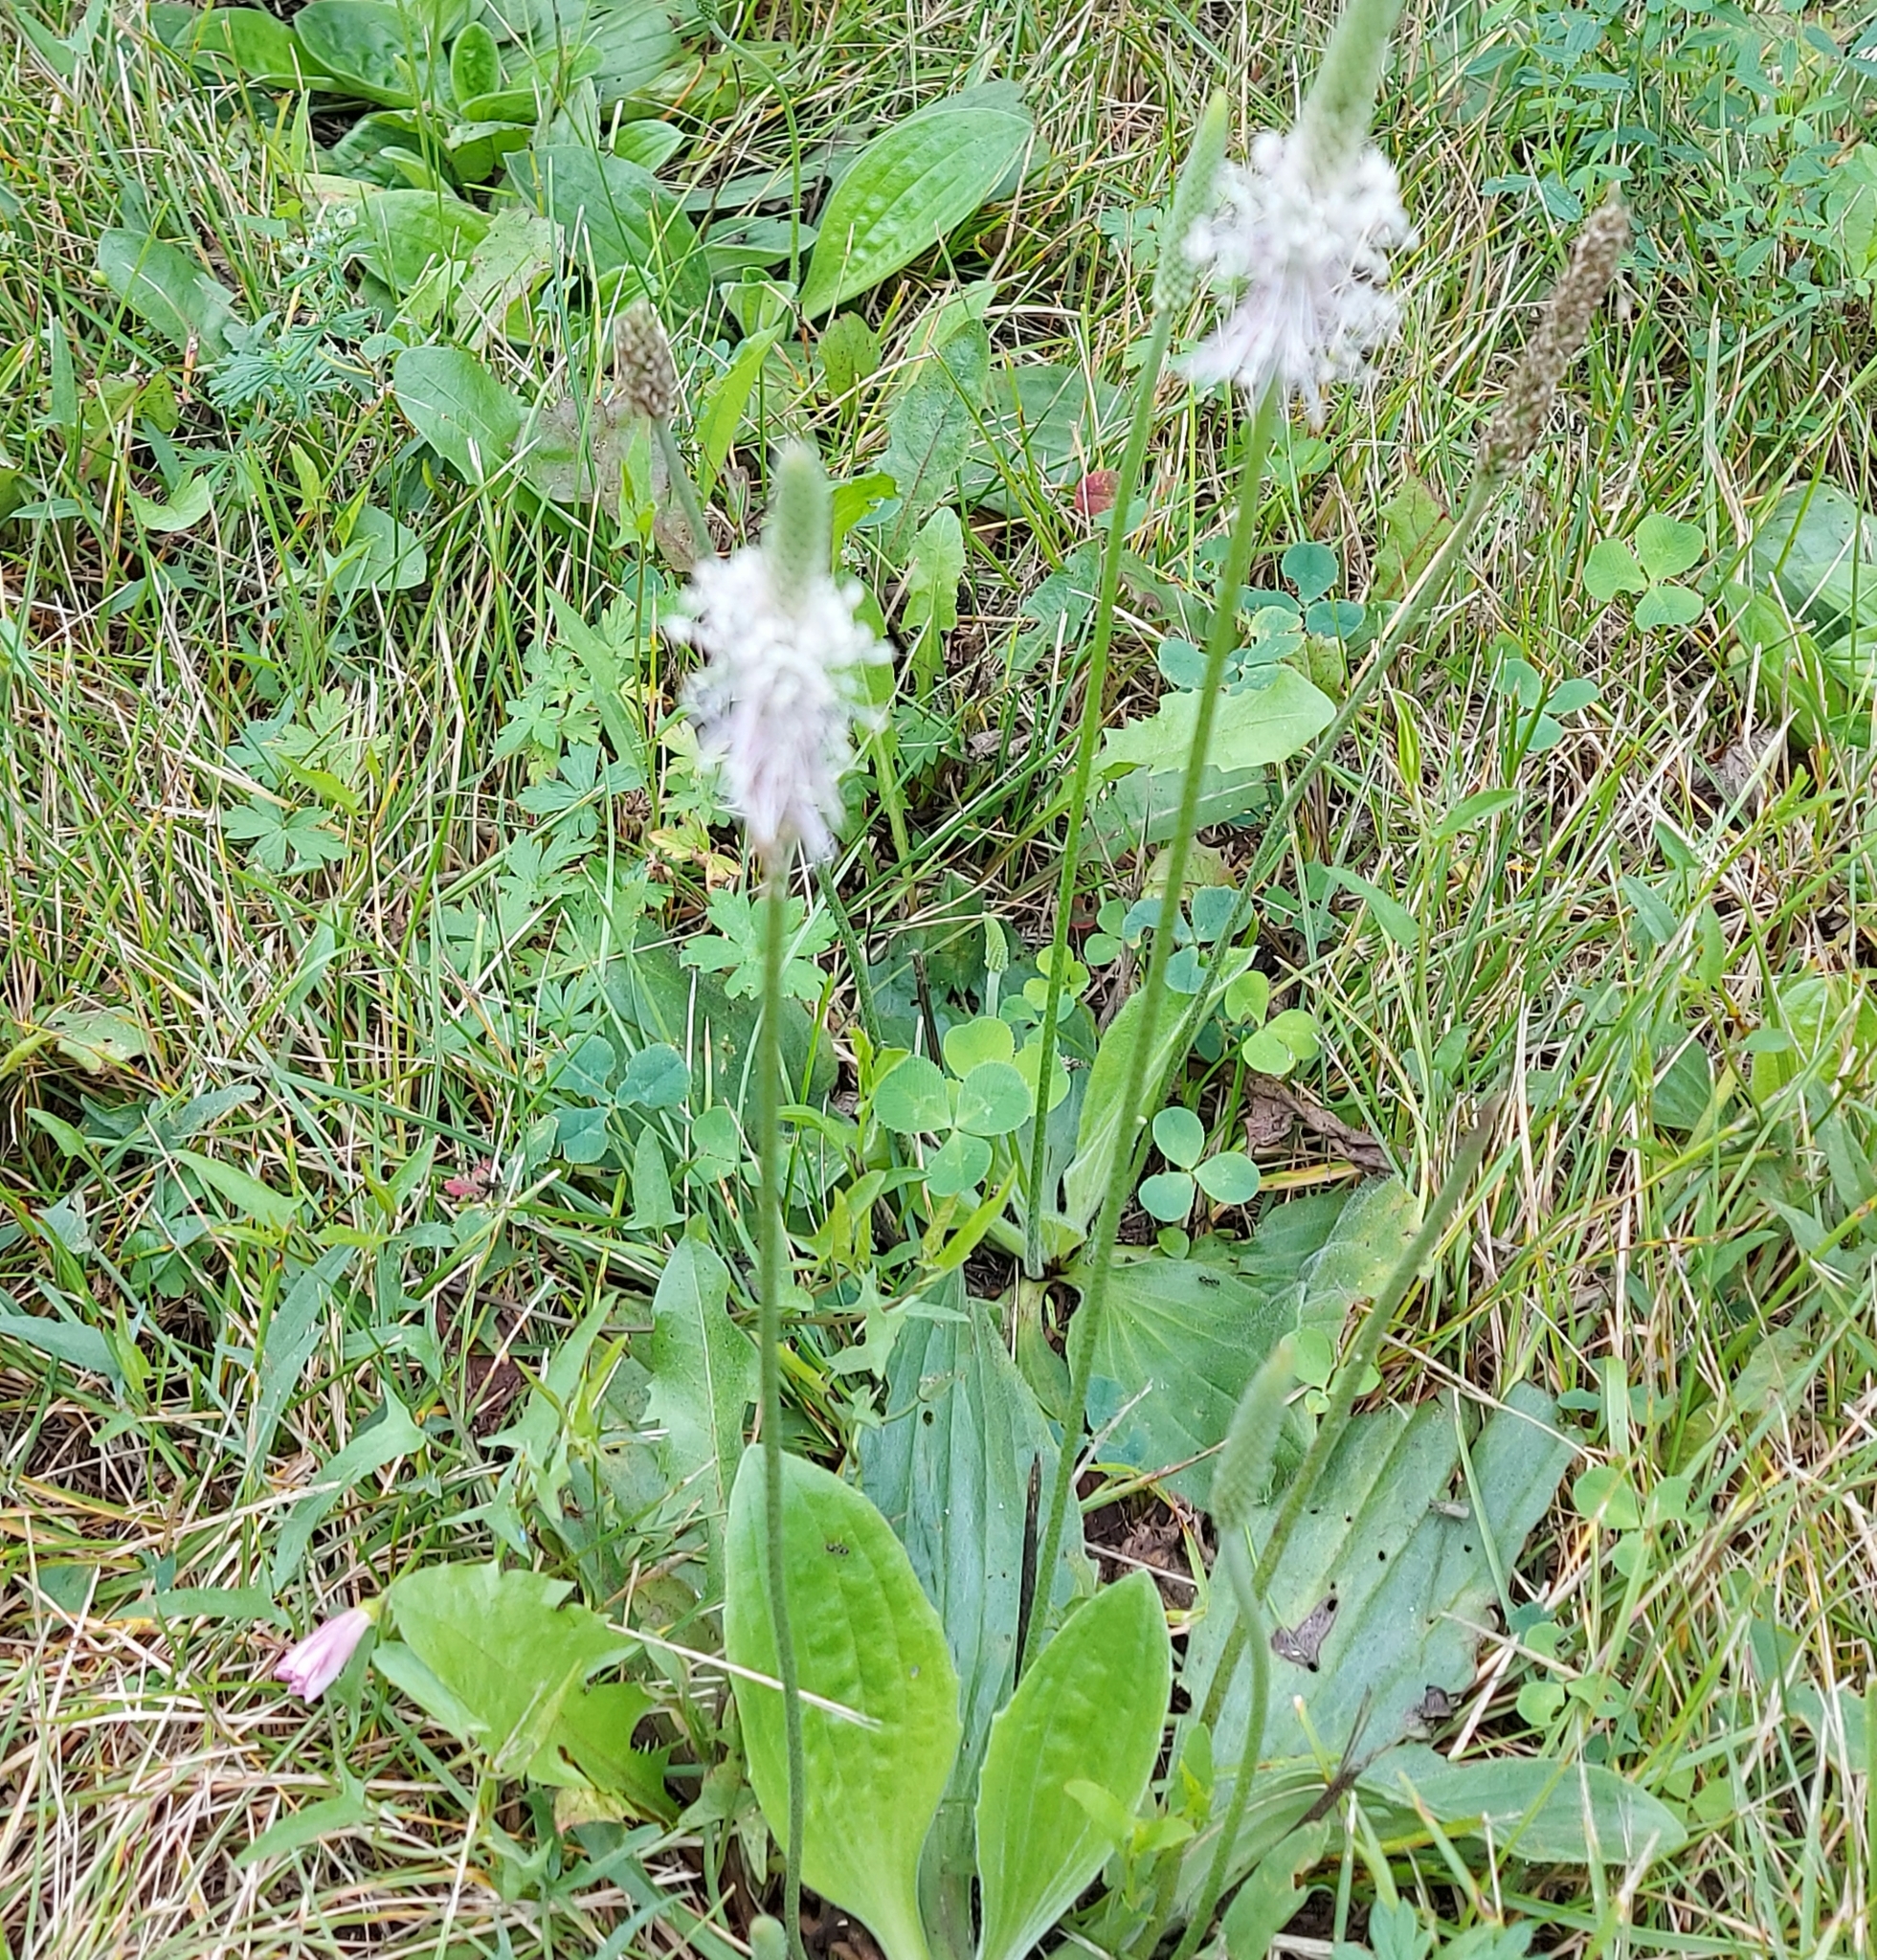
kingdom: Plantae
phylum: Tracheophyta
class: Magnoliopsida
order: Lamiales
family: Plantaginaceae
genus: Plantago
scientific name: Plantago media
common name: Hoary plantain
